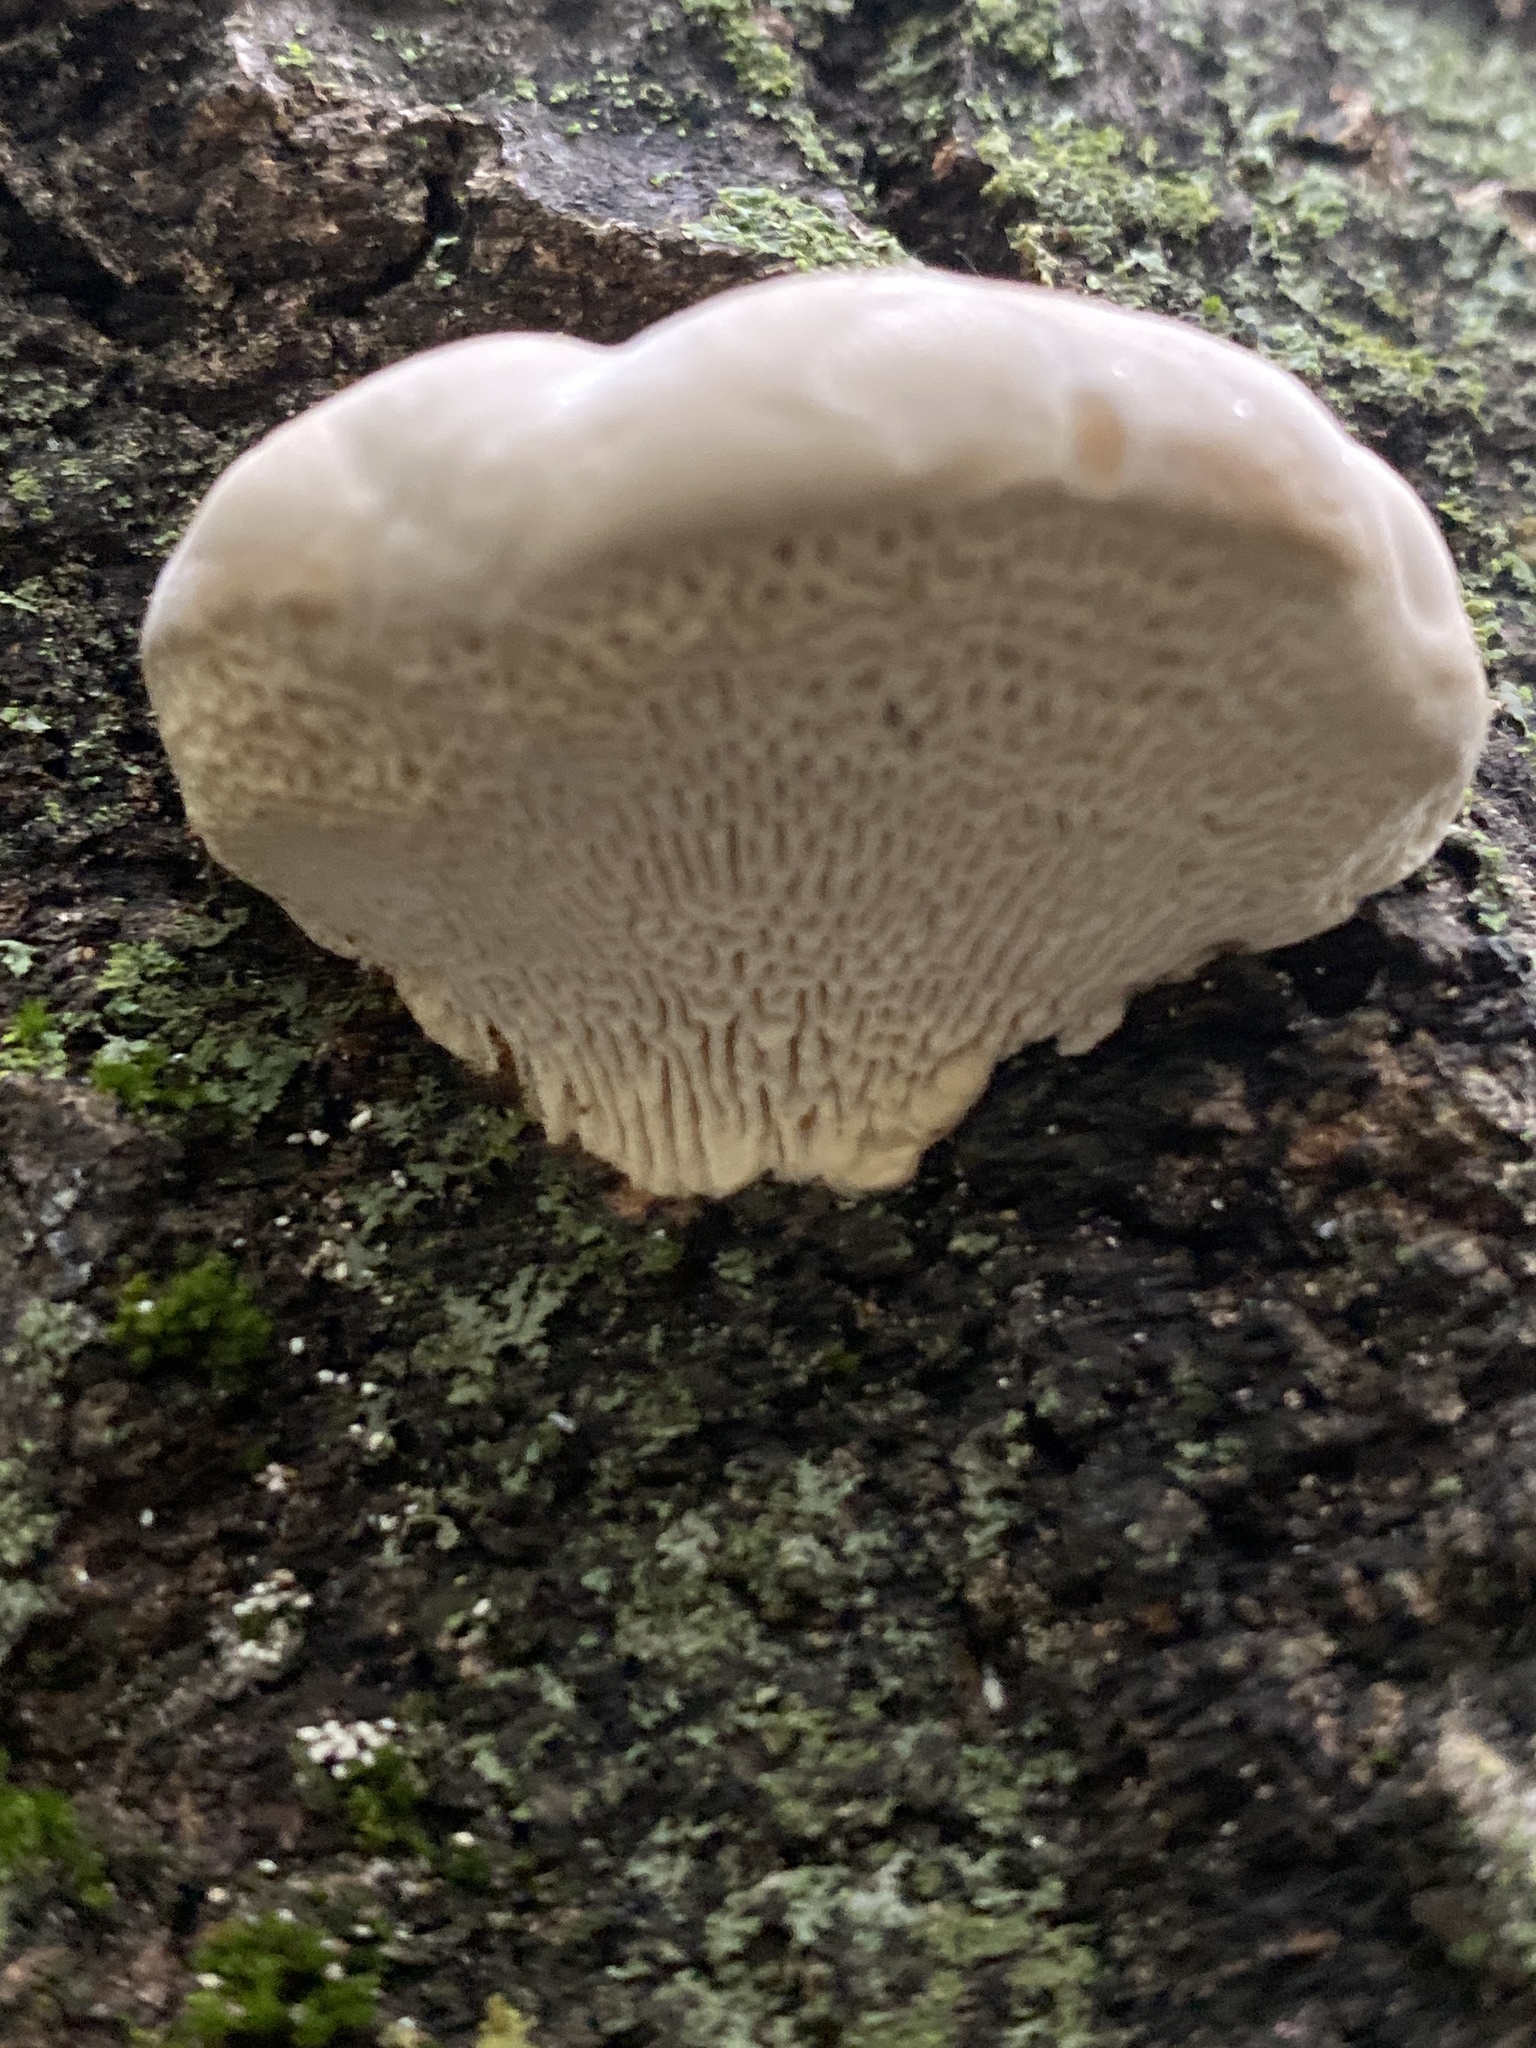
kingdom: Fungi
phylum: Basidiomycota
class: Agaricomycetes
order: Polyporales
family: Polyporaceae
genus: Trametes
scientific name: Trametes gibbosa
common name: Lumpy bracket
